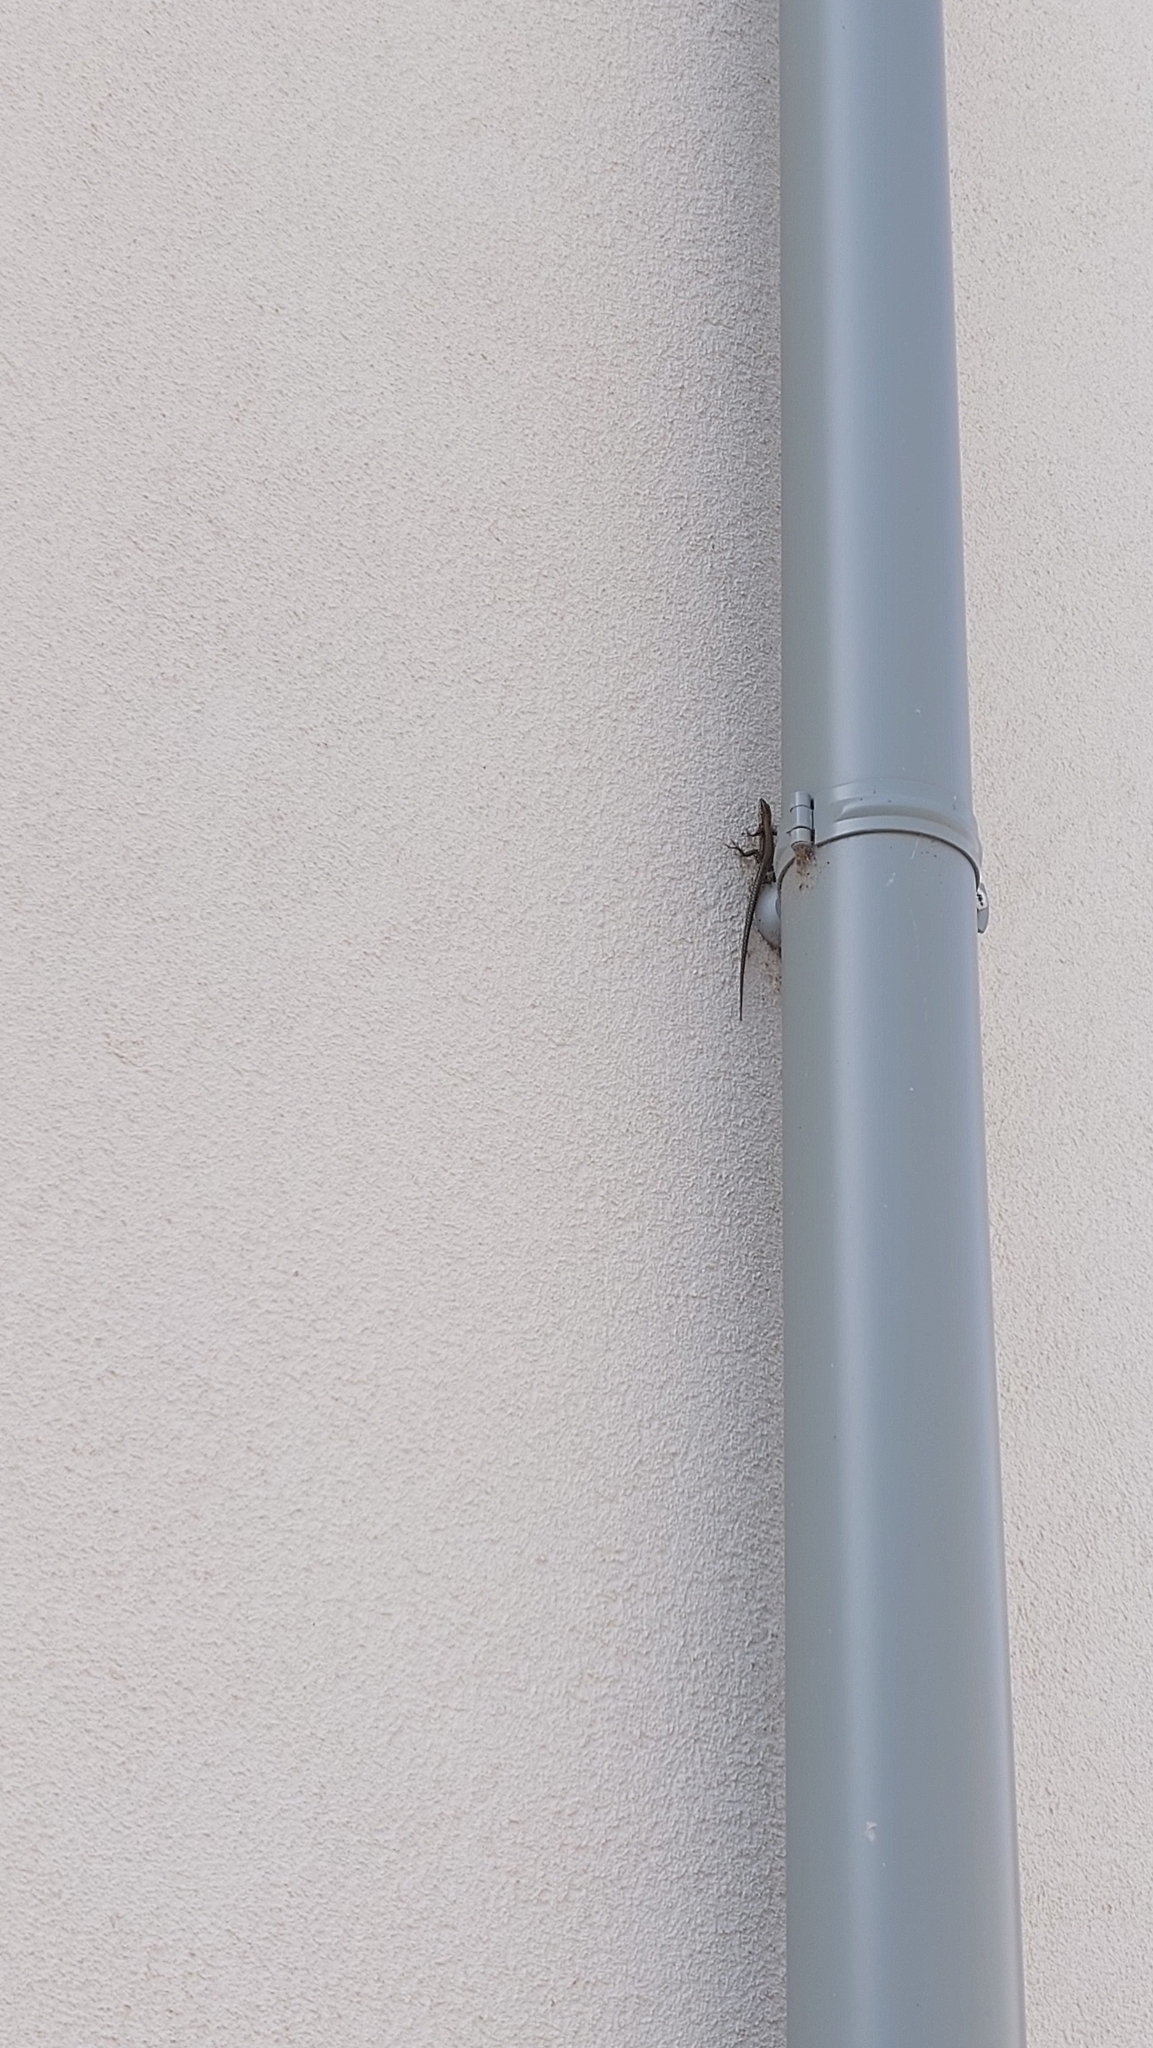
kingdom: Animalia
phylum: Chordata
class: Squamata
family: Lacertidae
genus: Podarcis
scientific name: Podarcis muralis
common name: Common wall lizard
